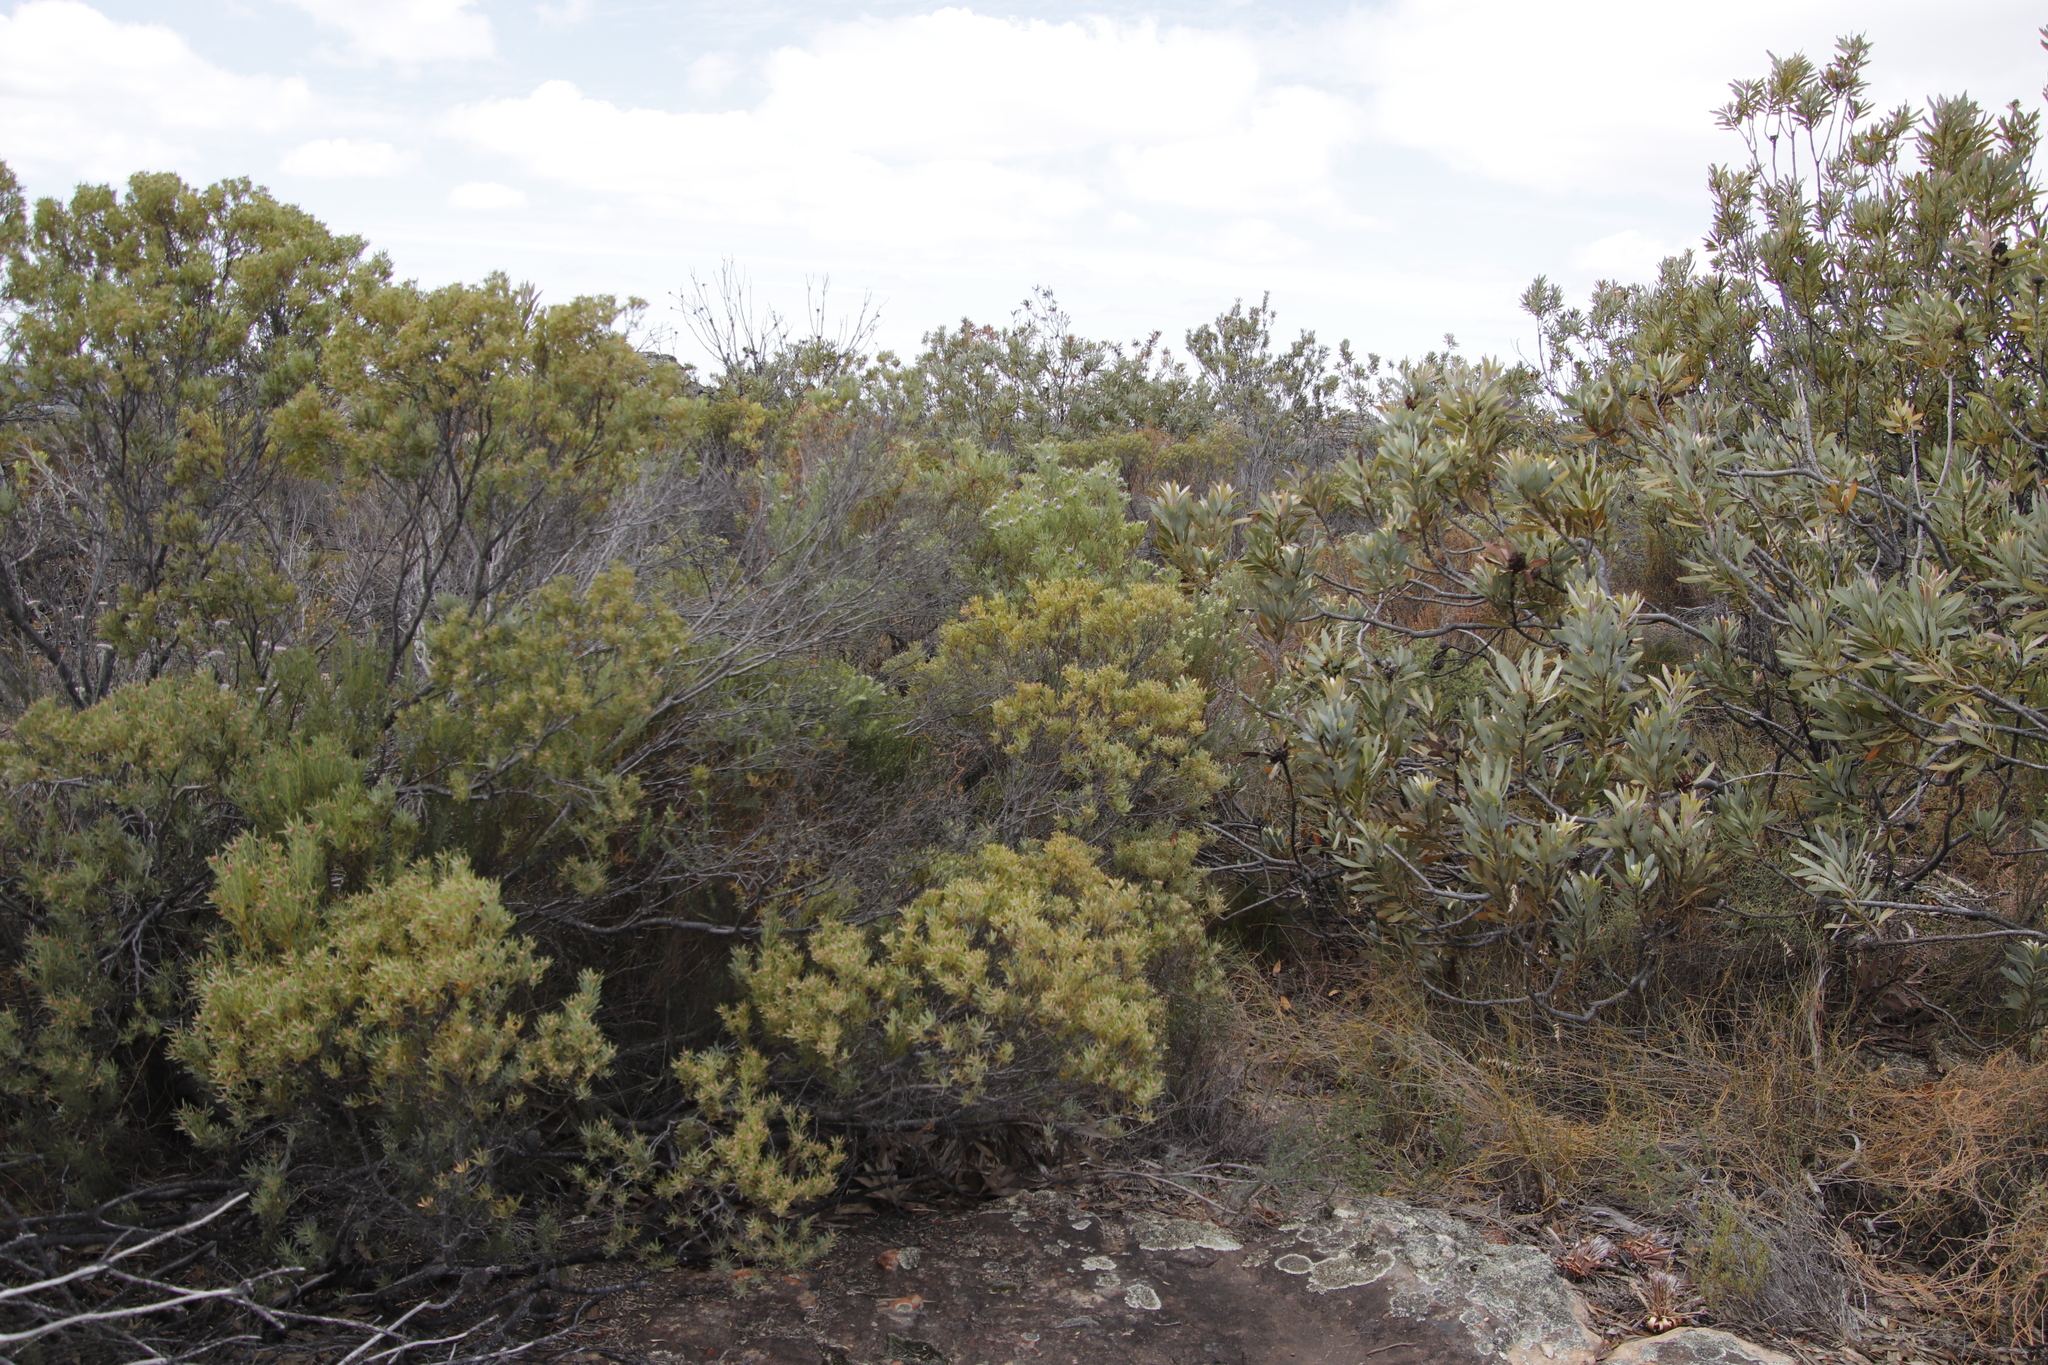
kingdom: Plantae
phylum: Tracheophyta
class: Magnoliopsida
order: Proteales
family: Proteaceae
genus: Leucadendron
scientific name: Leucadendron pubescens
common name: Grey conebush
